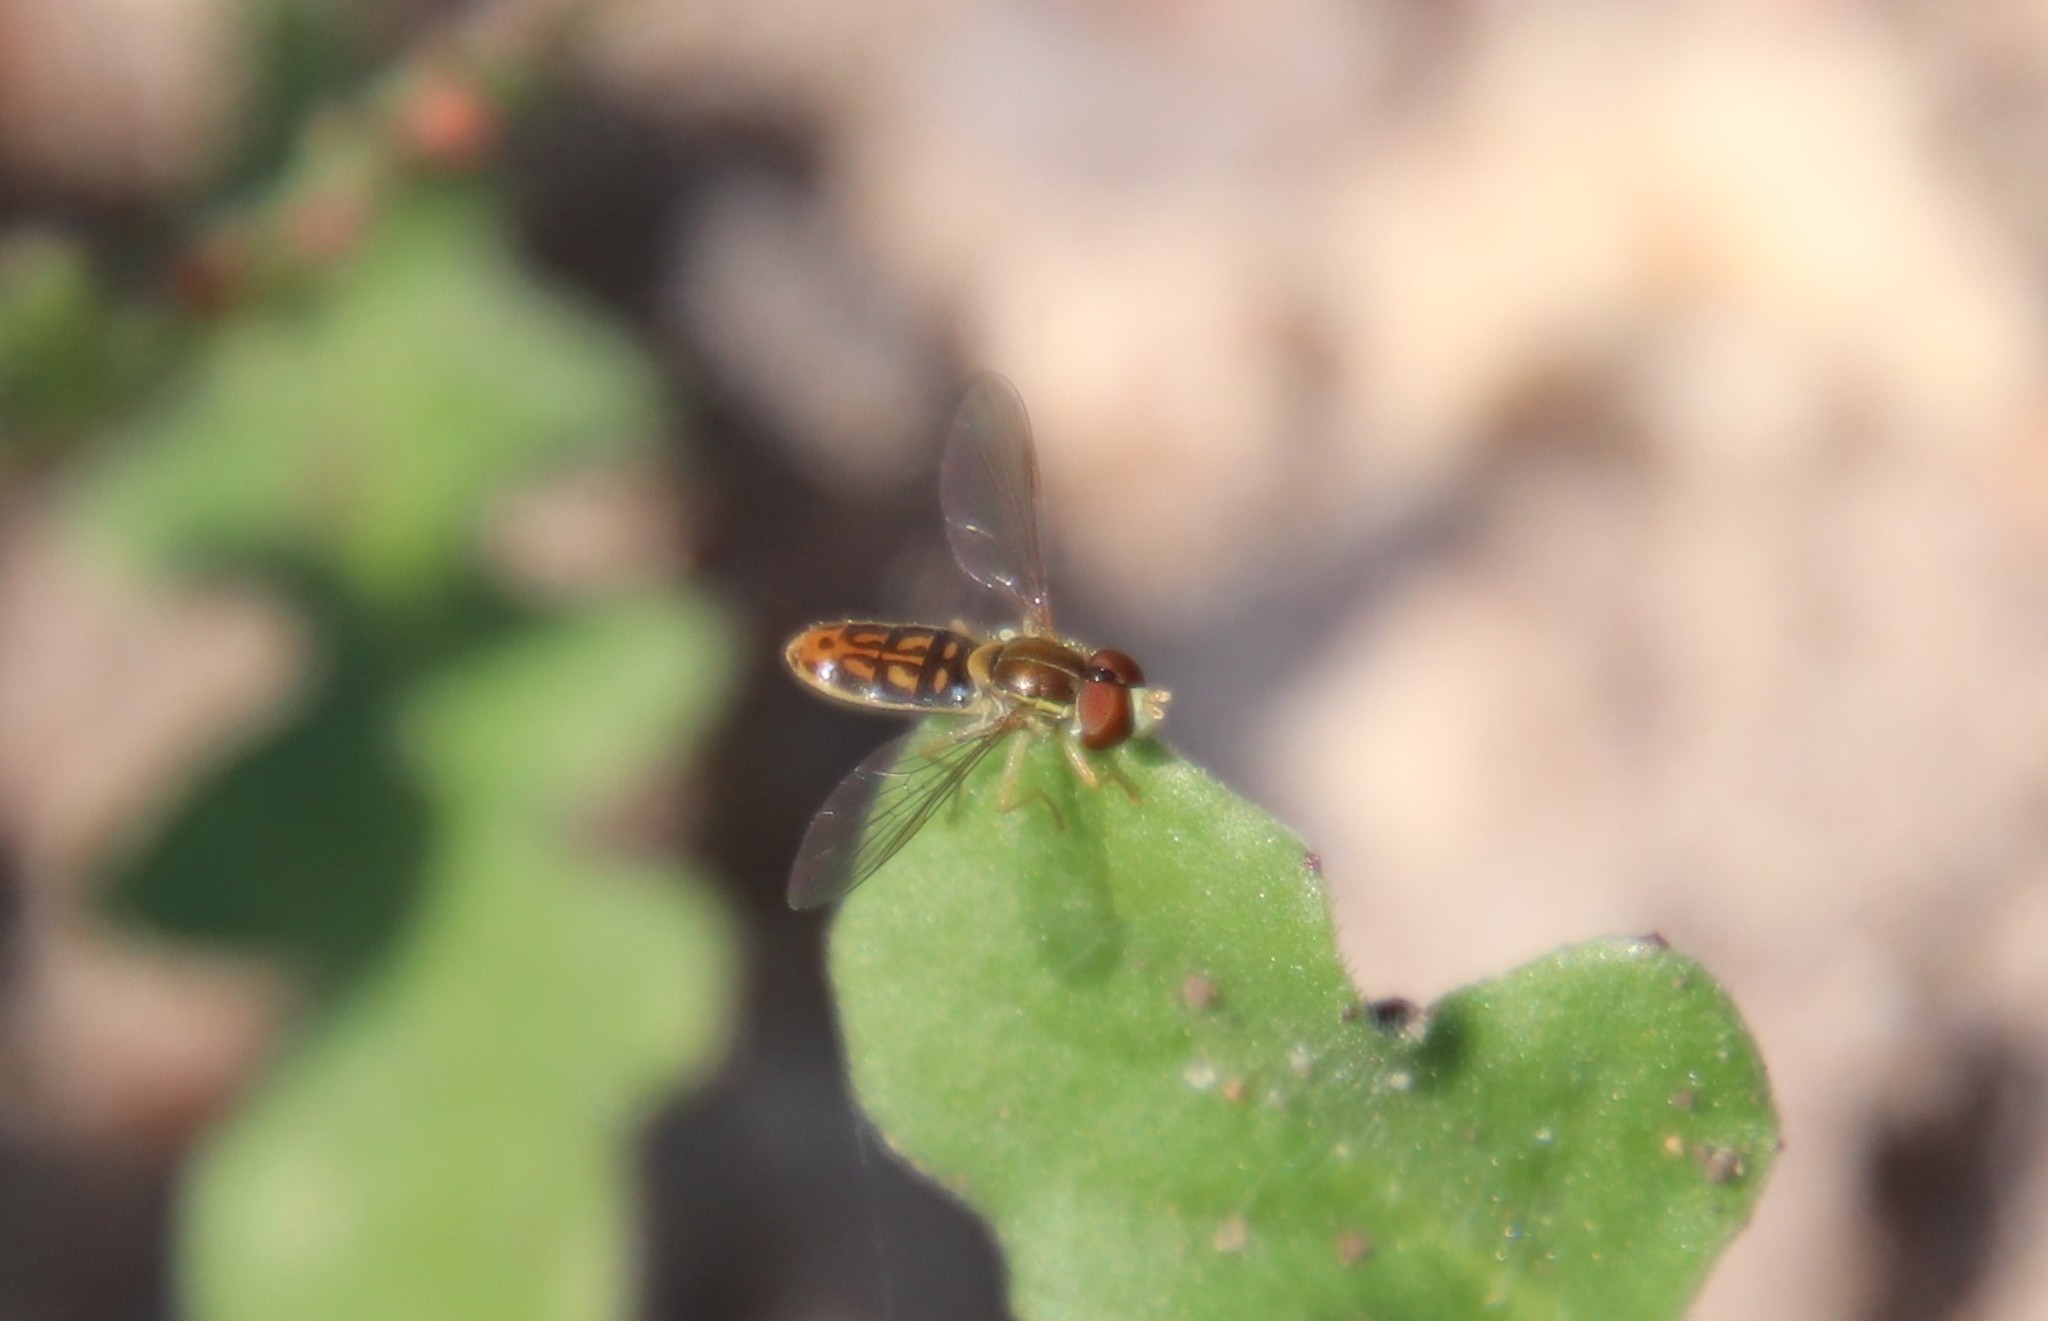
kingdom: Animalia
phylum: Arthropoda
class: Insecta
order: Diptera
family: Syrphidae
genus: Toxomerus
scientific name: Toxomerus marginatus
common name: Syrphid fly
